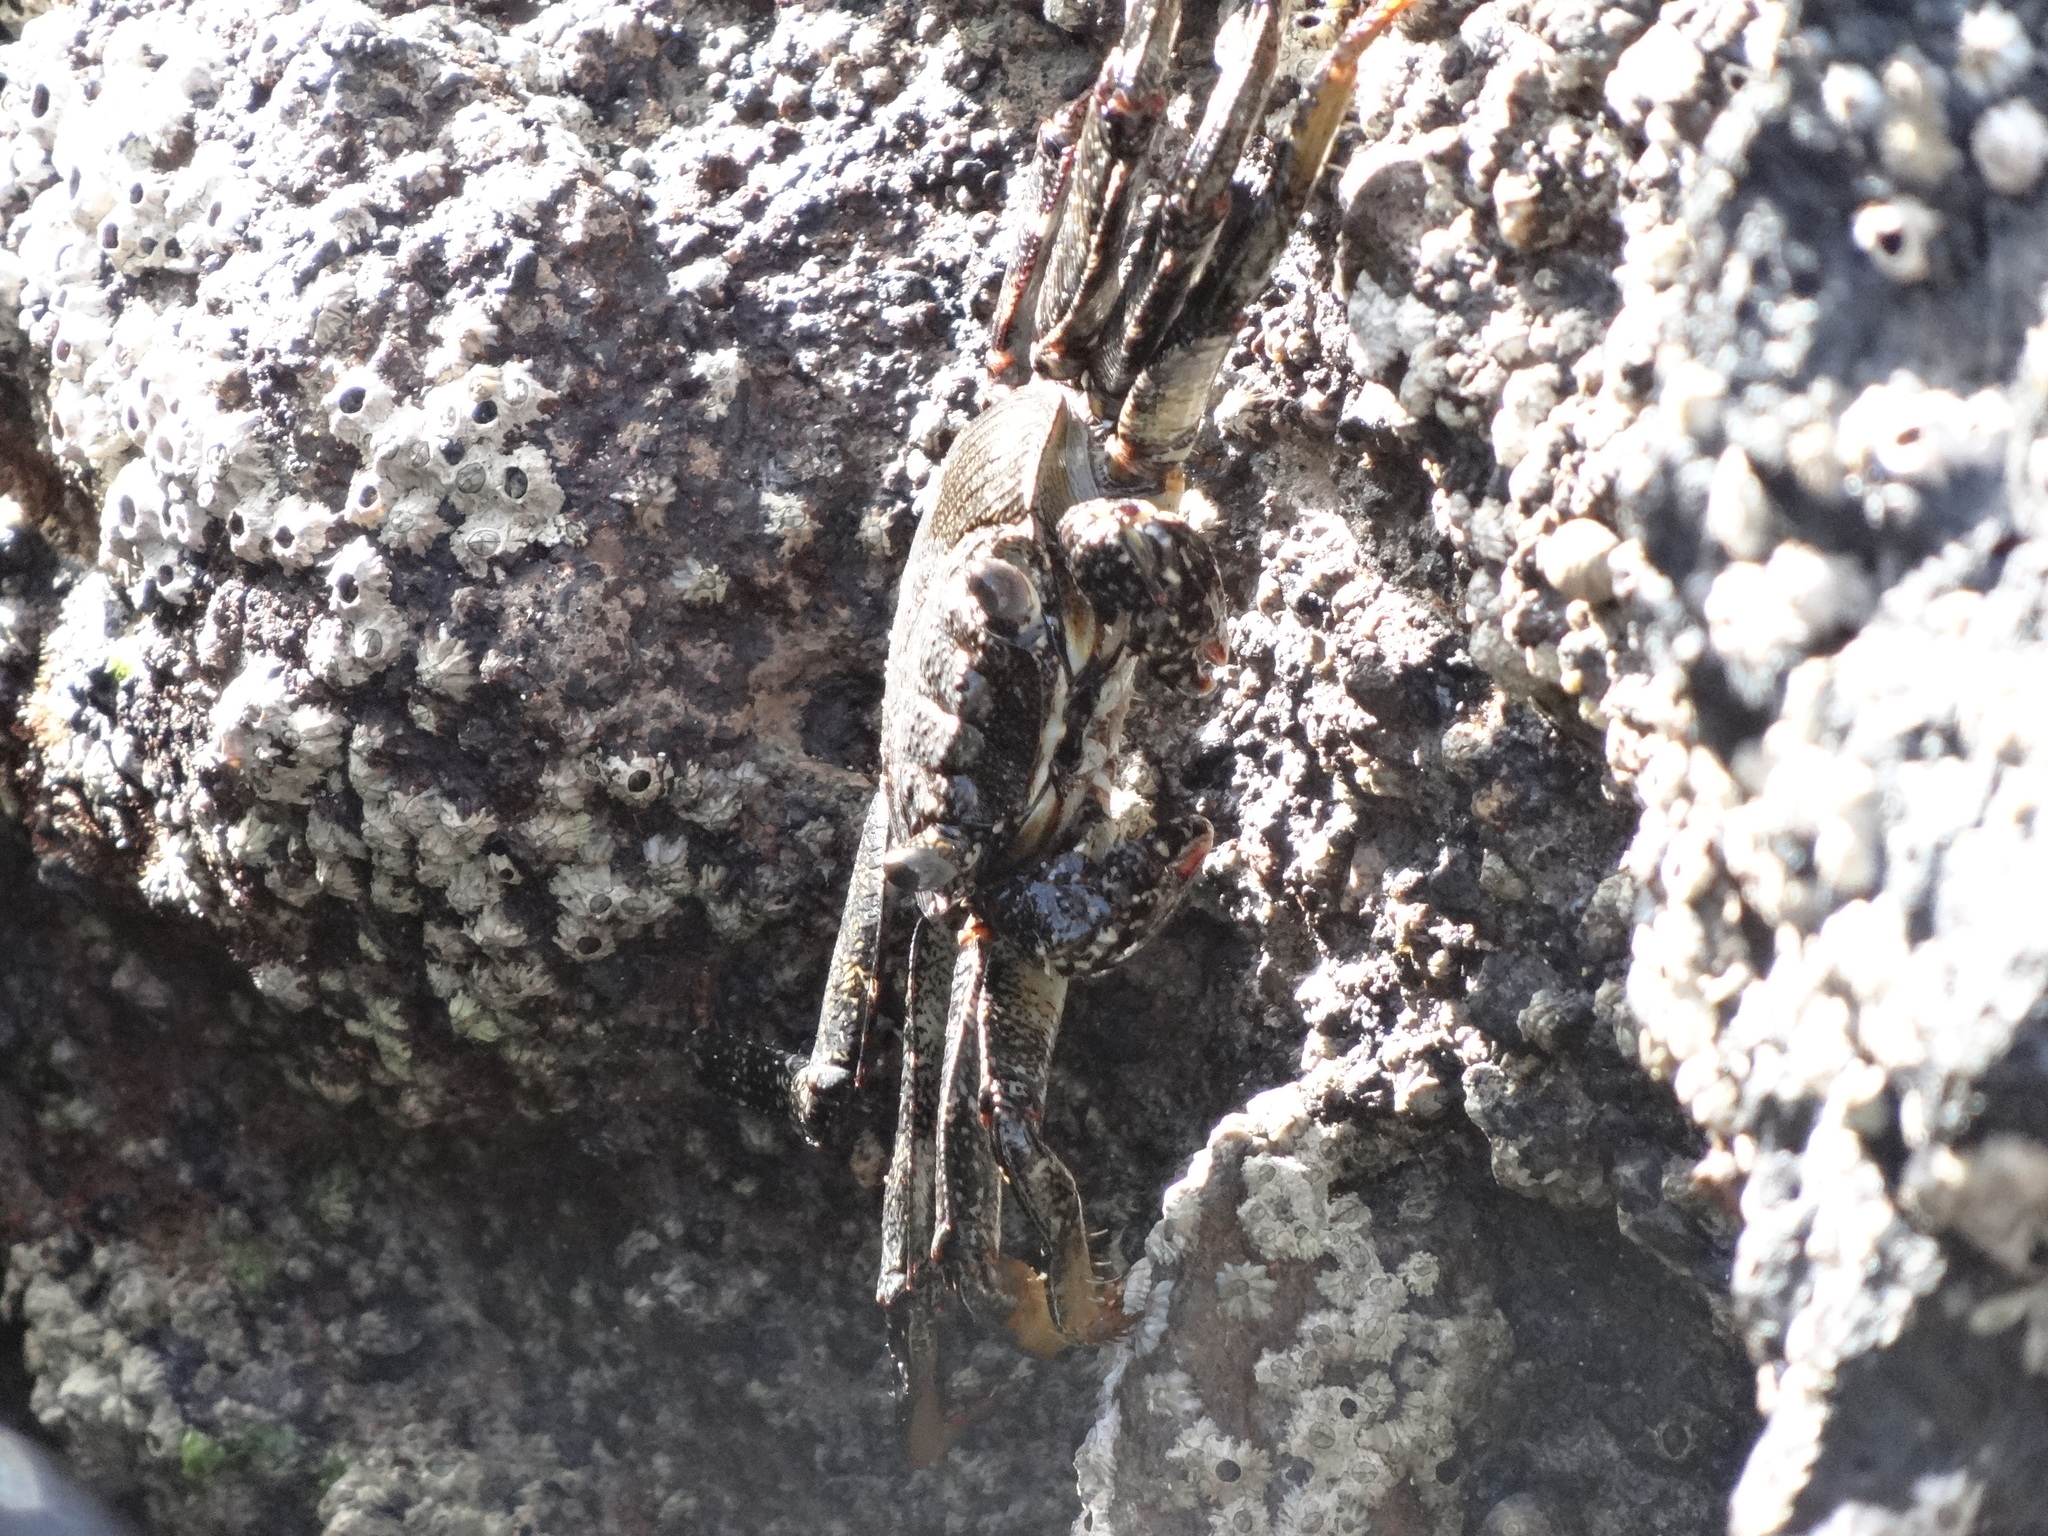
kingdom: Animalia
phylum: Arthropoda
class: Malacostraca
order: Decapoda
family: Grapsidae
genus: Grapsus
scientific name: Grapsus adscensionis
